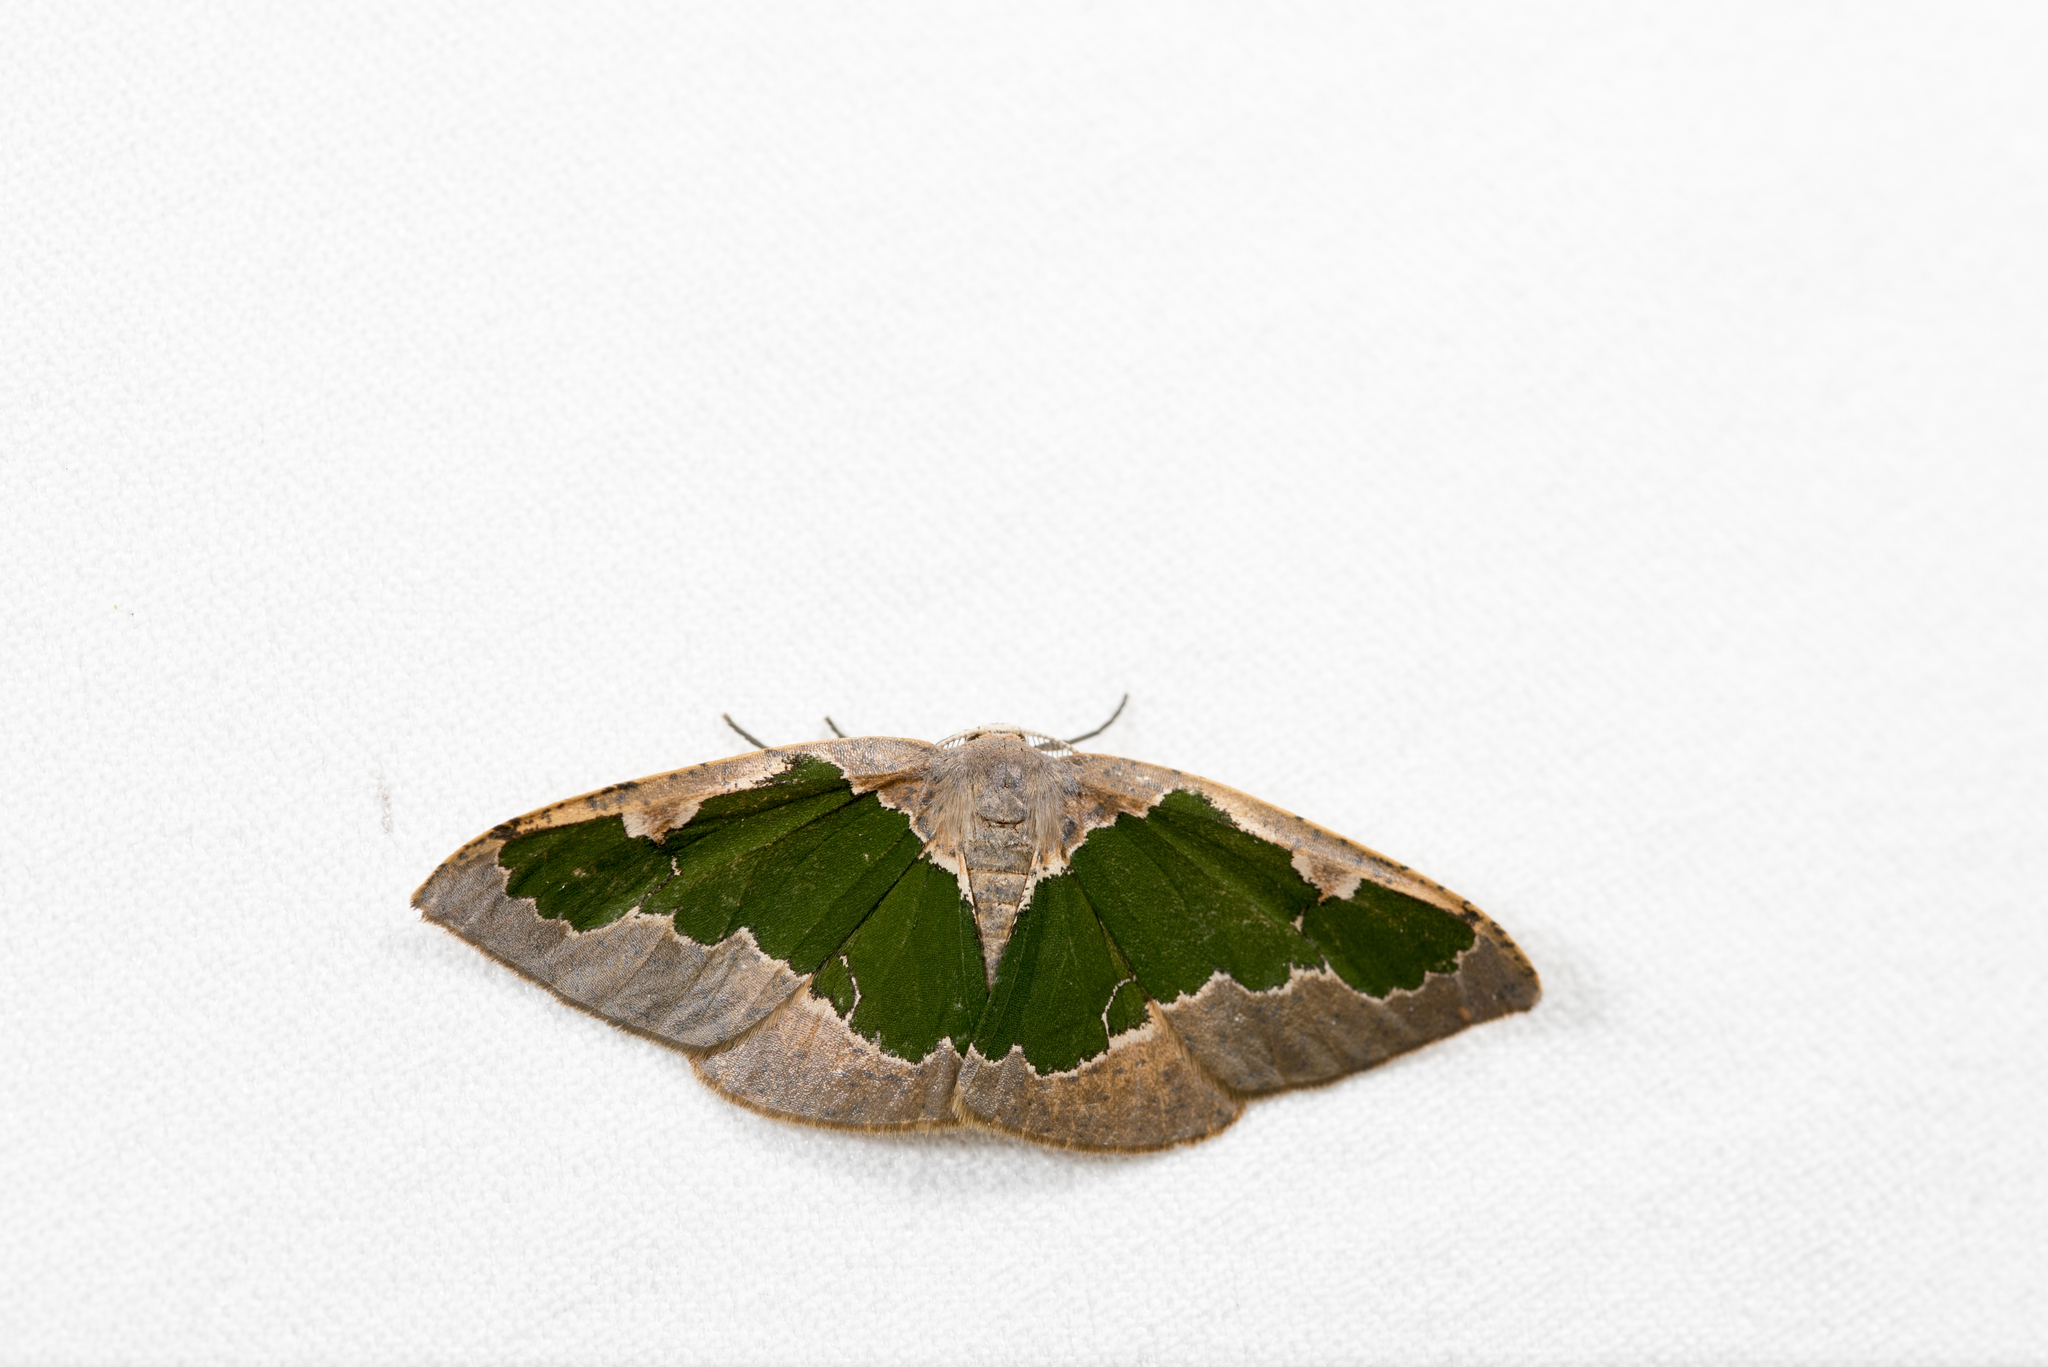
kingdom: Animalia
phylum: Arthropoda
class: Insecta
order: Lepidoptera
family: Geometridae
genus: Celenna
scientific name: Celenna festivaria
